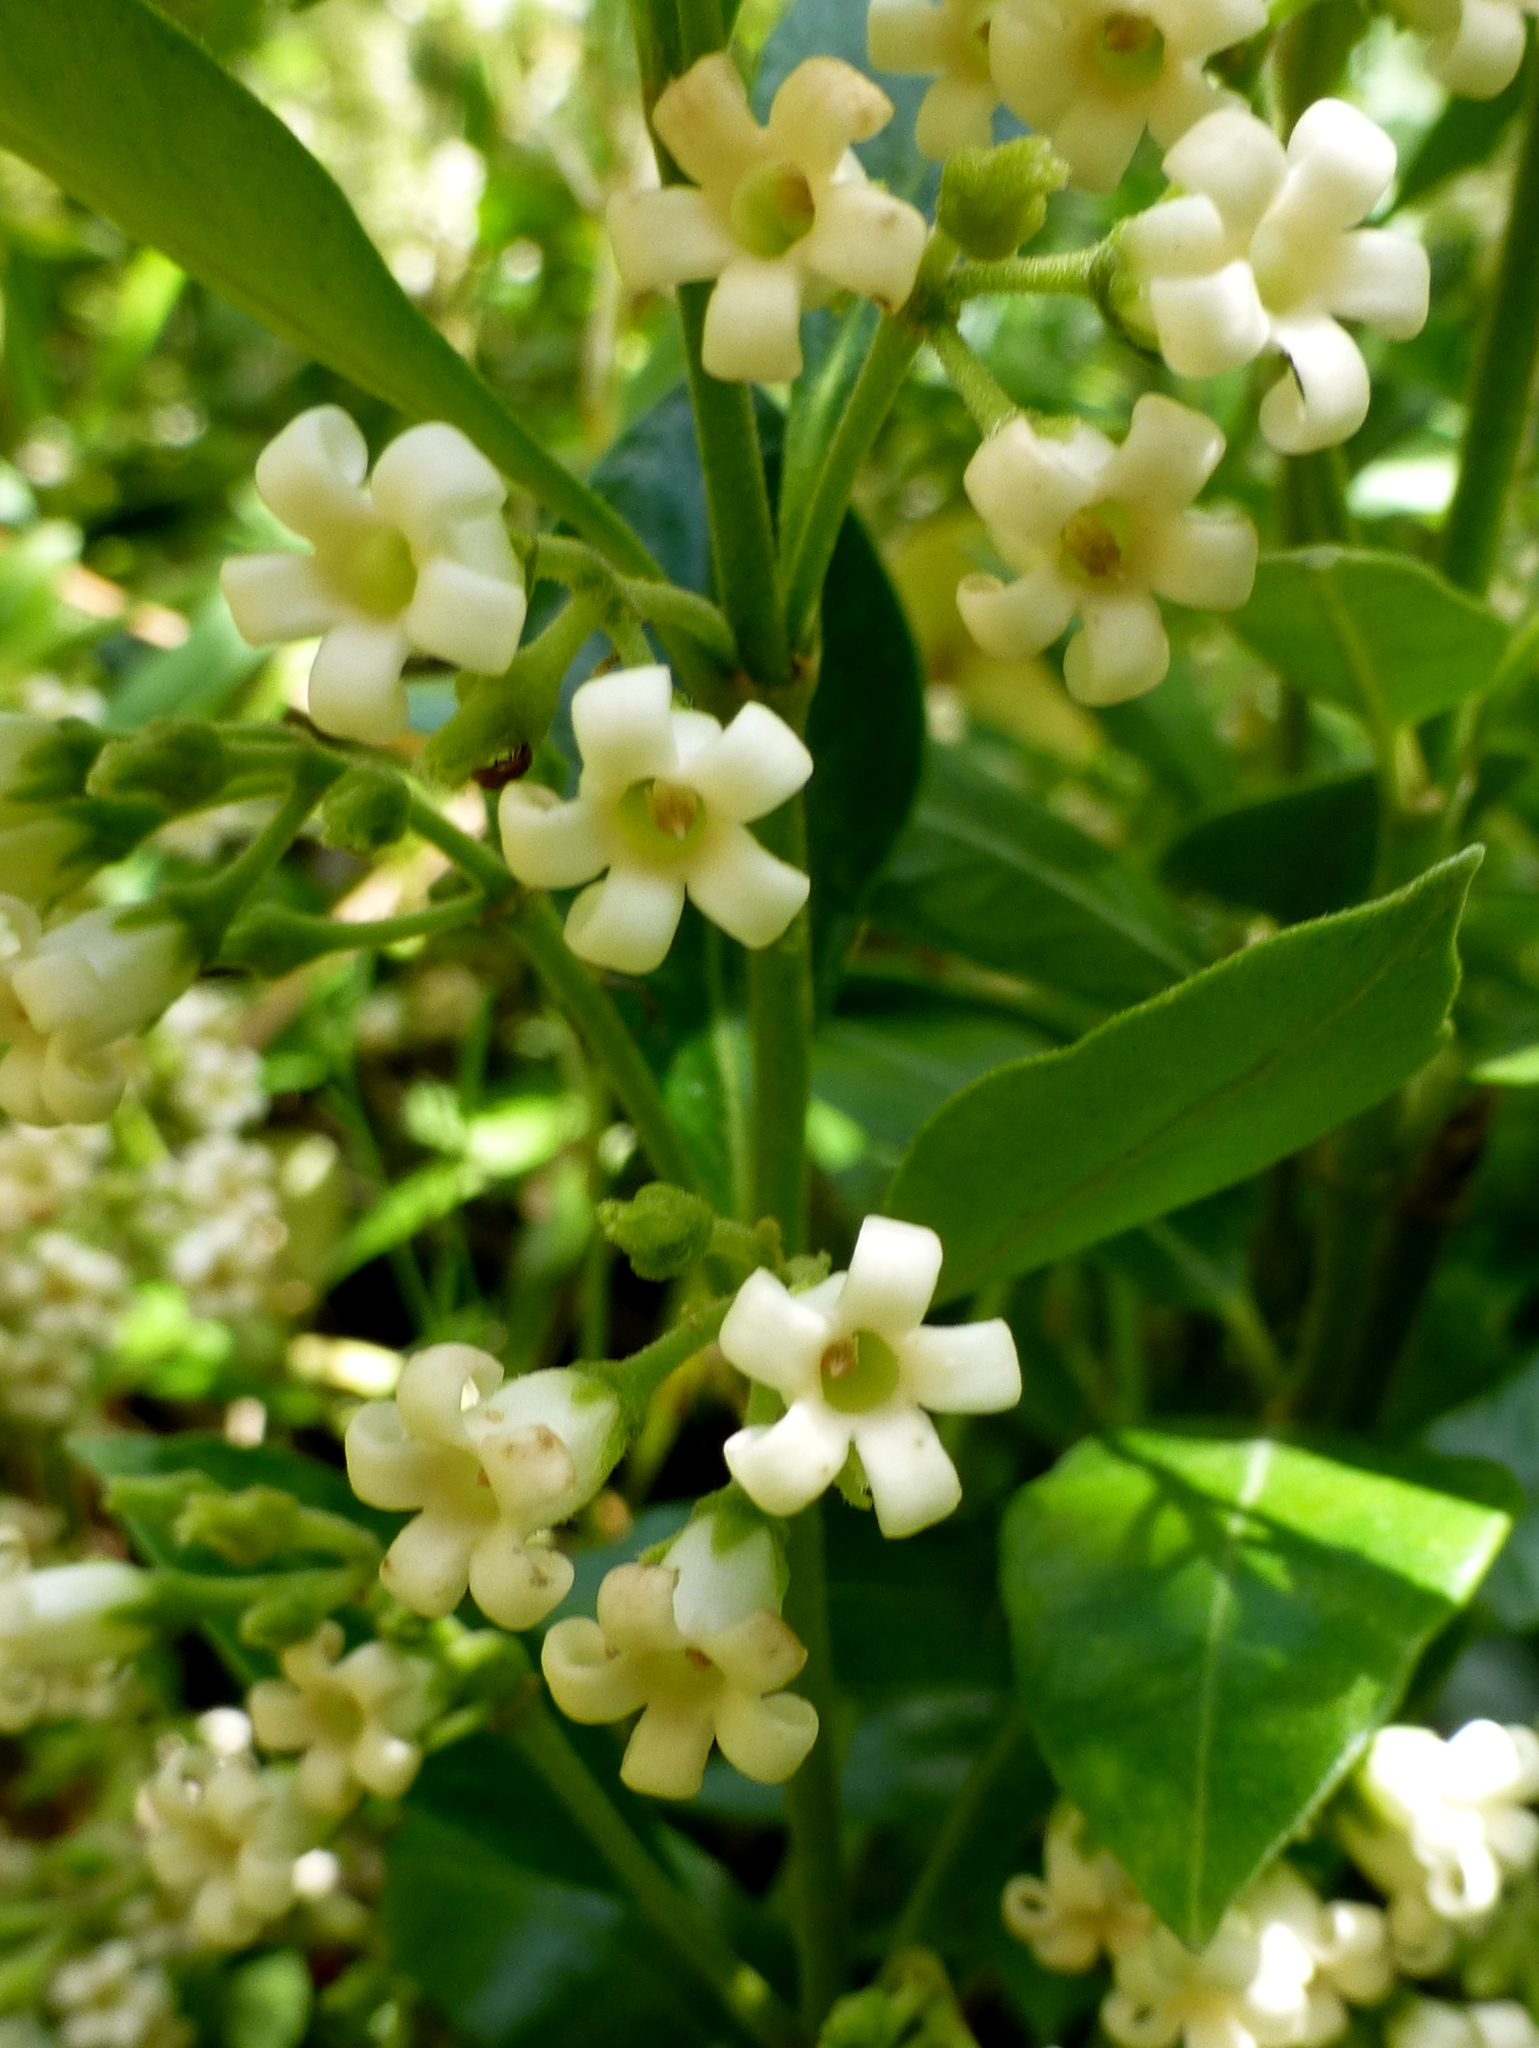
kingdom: Plantae
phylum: Tracheophyta
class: Magnoliopsida
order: Gentianales
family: Apocynaceae
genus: Parsonsia
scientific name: Parsonsia heterophylla
